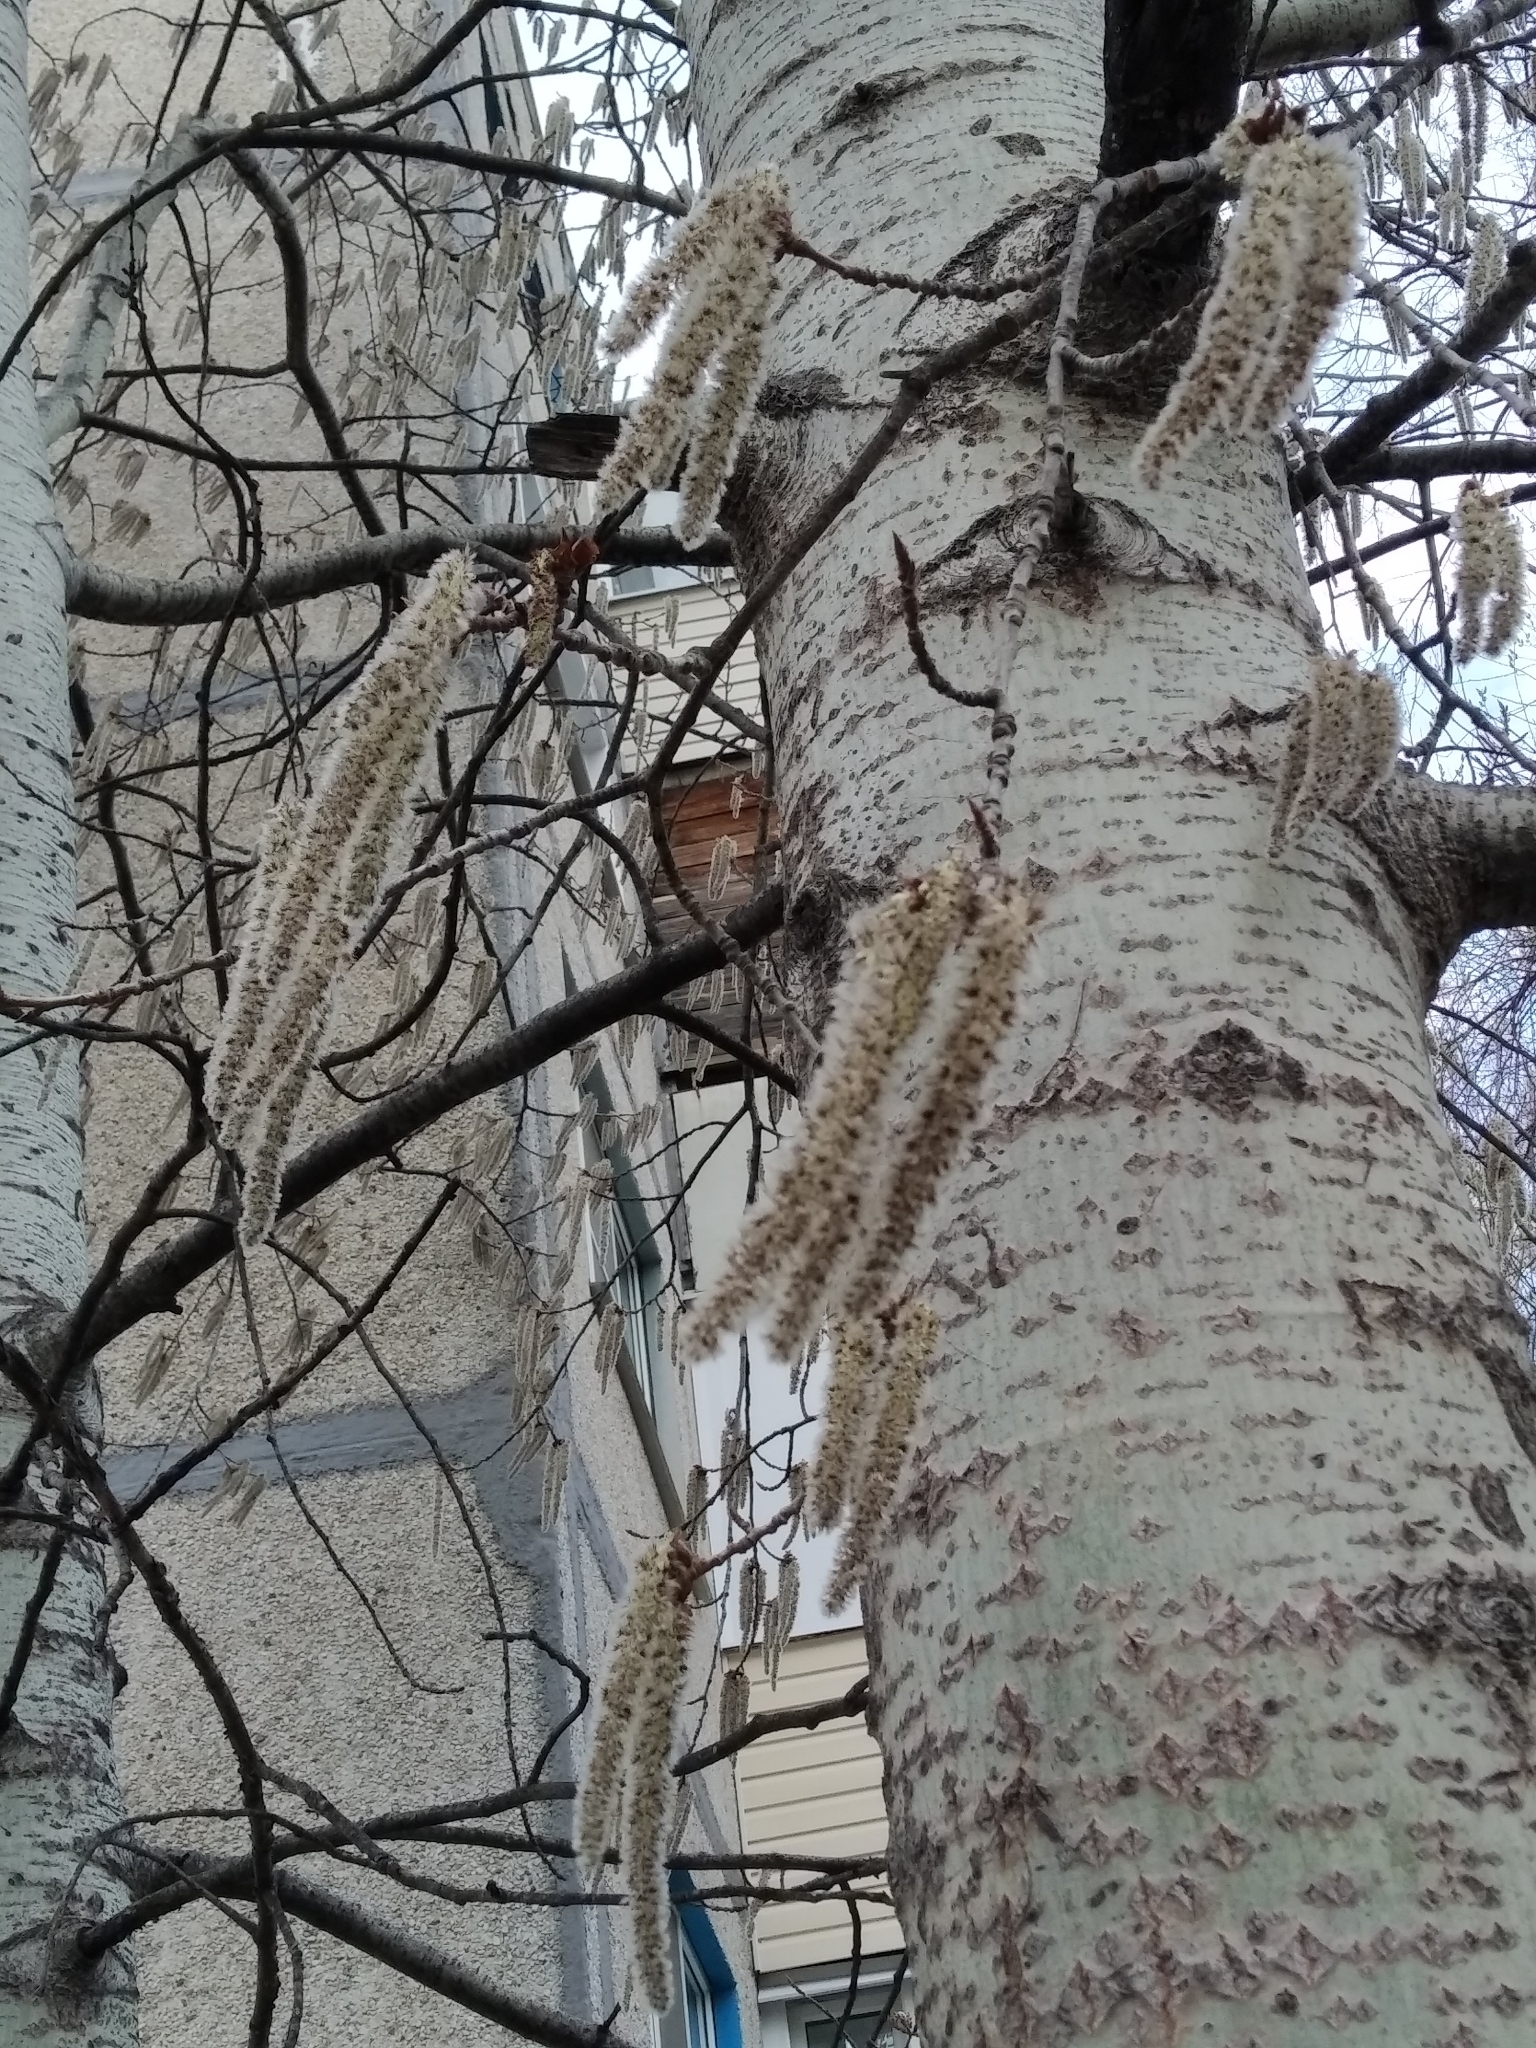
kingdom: Plantae
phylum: Tracheophyta
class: Magnoliopsida
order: Malpighiales
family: Salicaceae
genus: Populus
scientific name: Populus tremula
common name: European aspen
